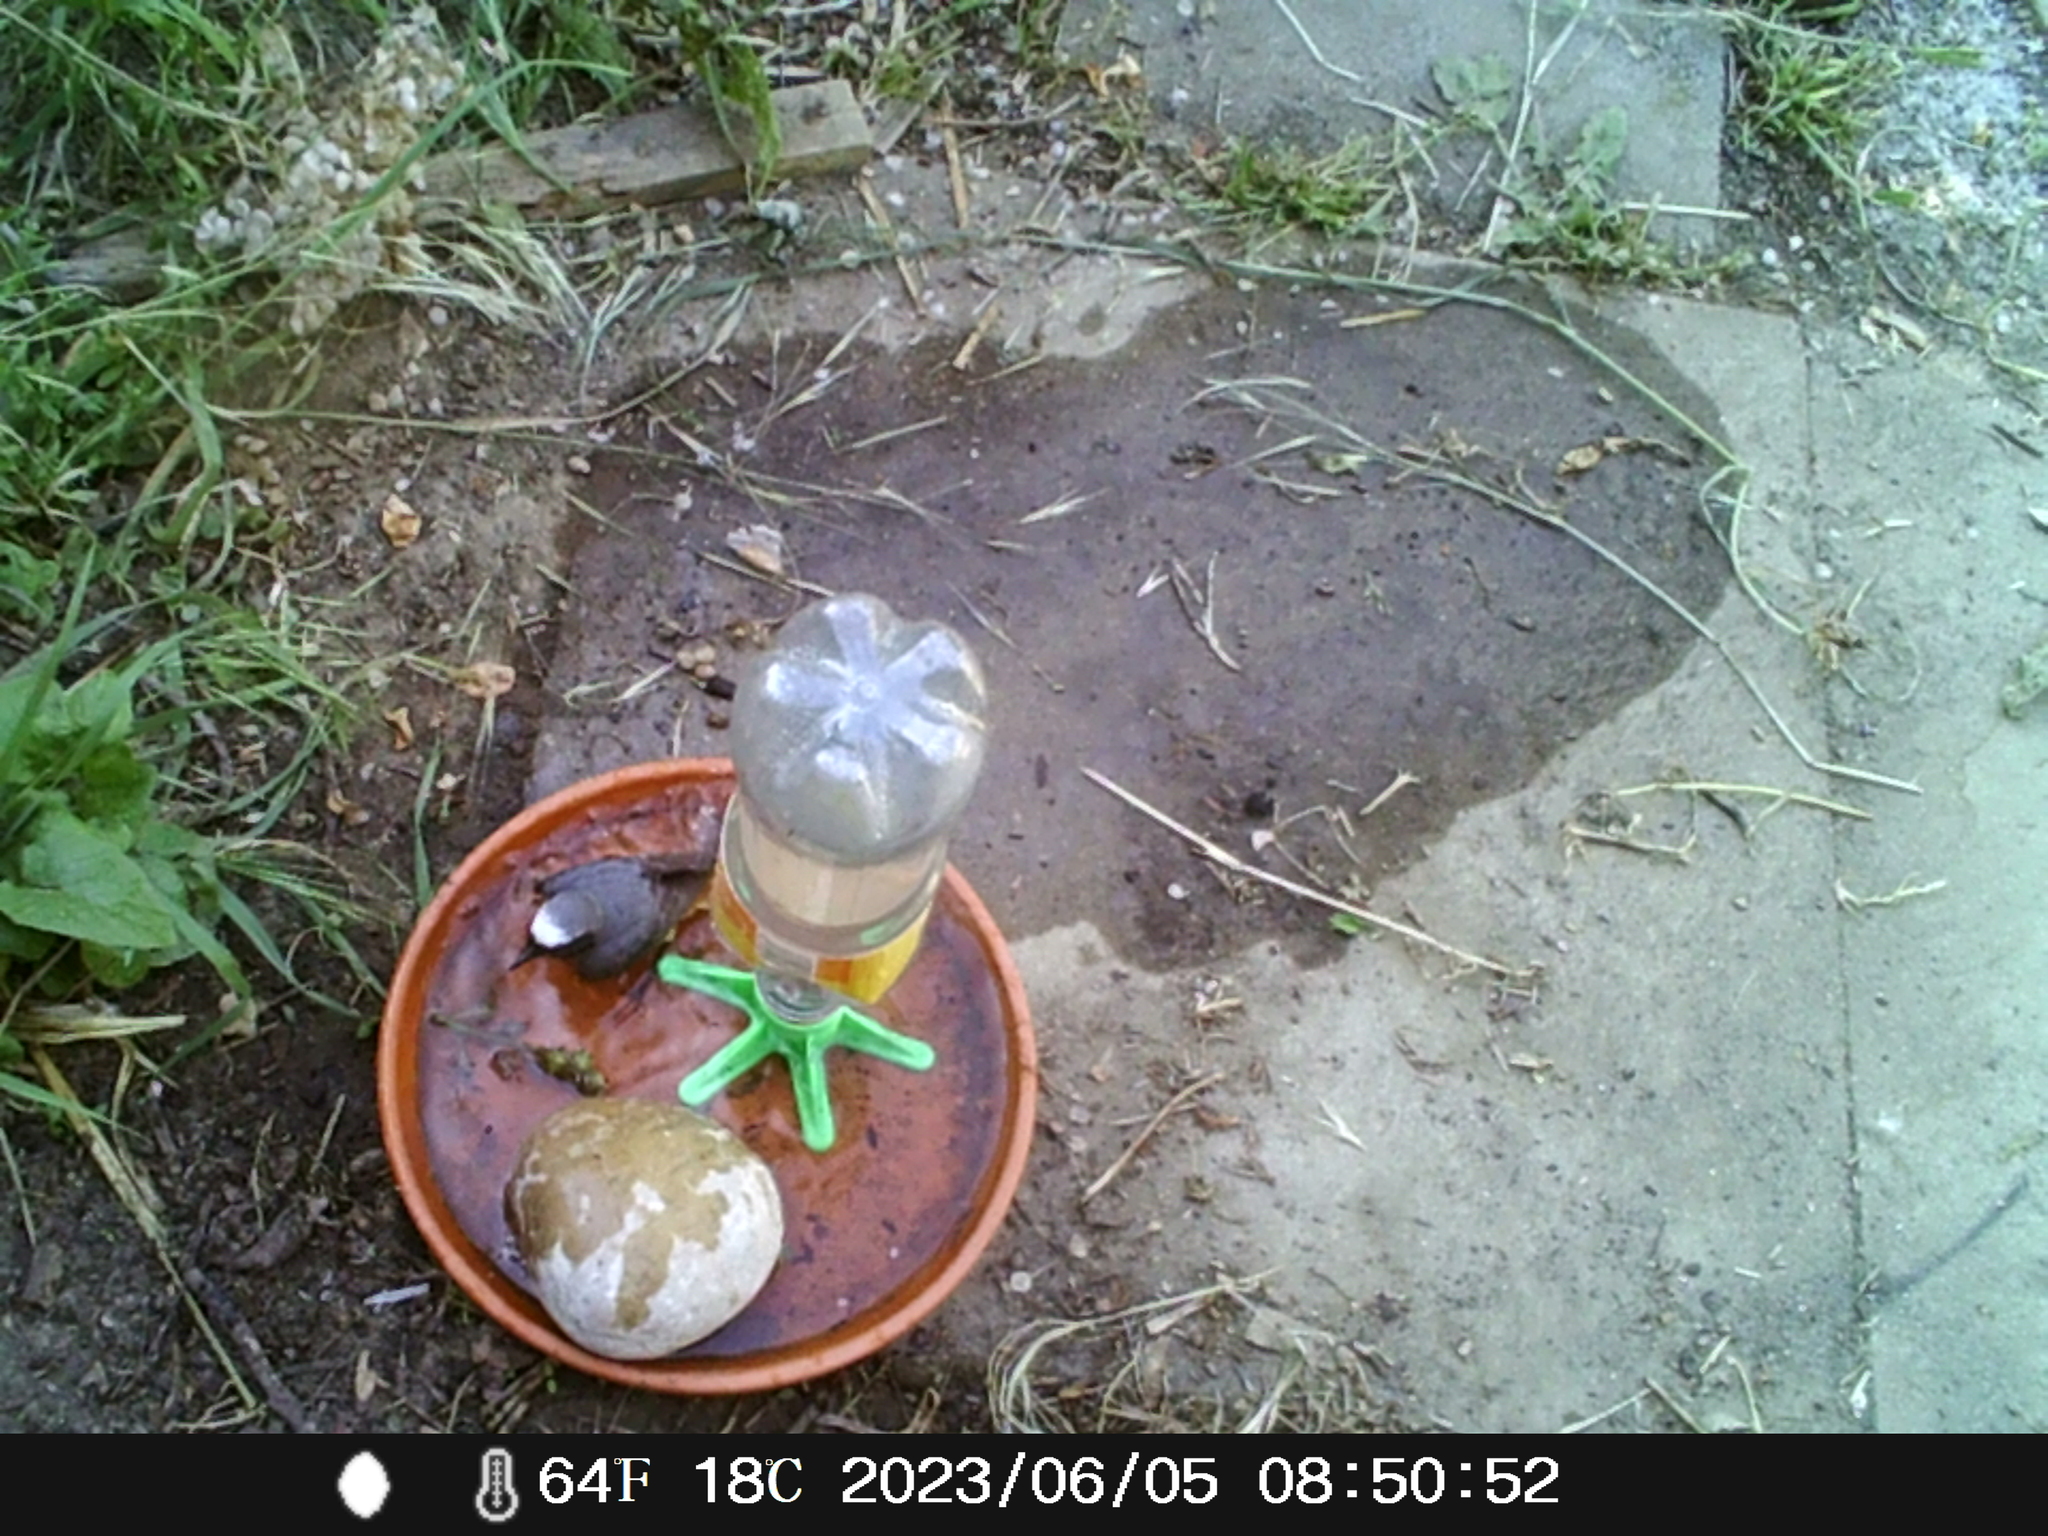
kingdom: Animalia
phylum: Chordata
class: Aves
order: Passeriformes
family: Muscicapidae
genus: Phoenicurus
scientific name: Phoenicurus phoenicurus
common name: Common redstart
